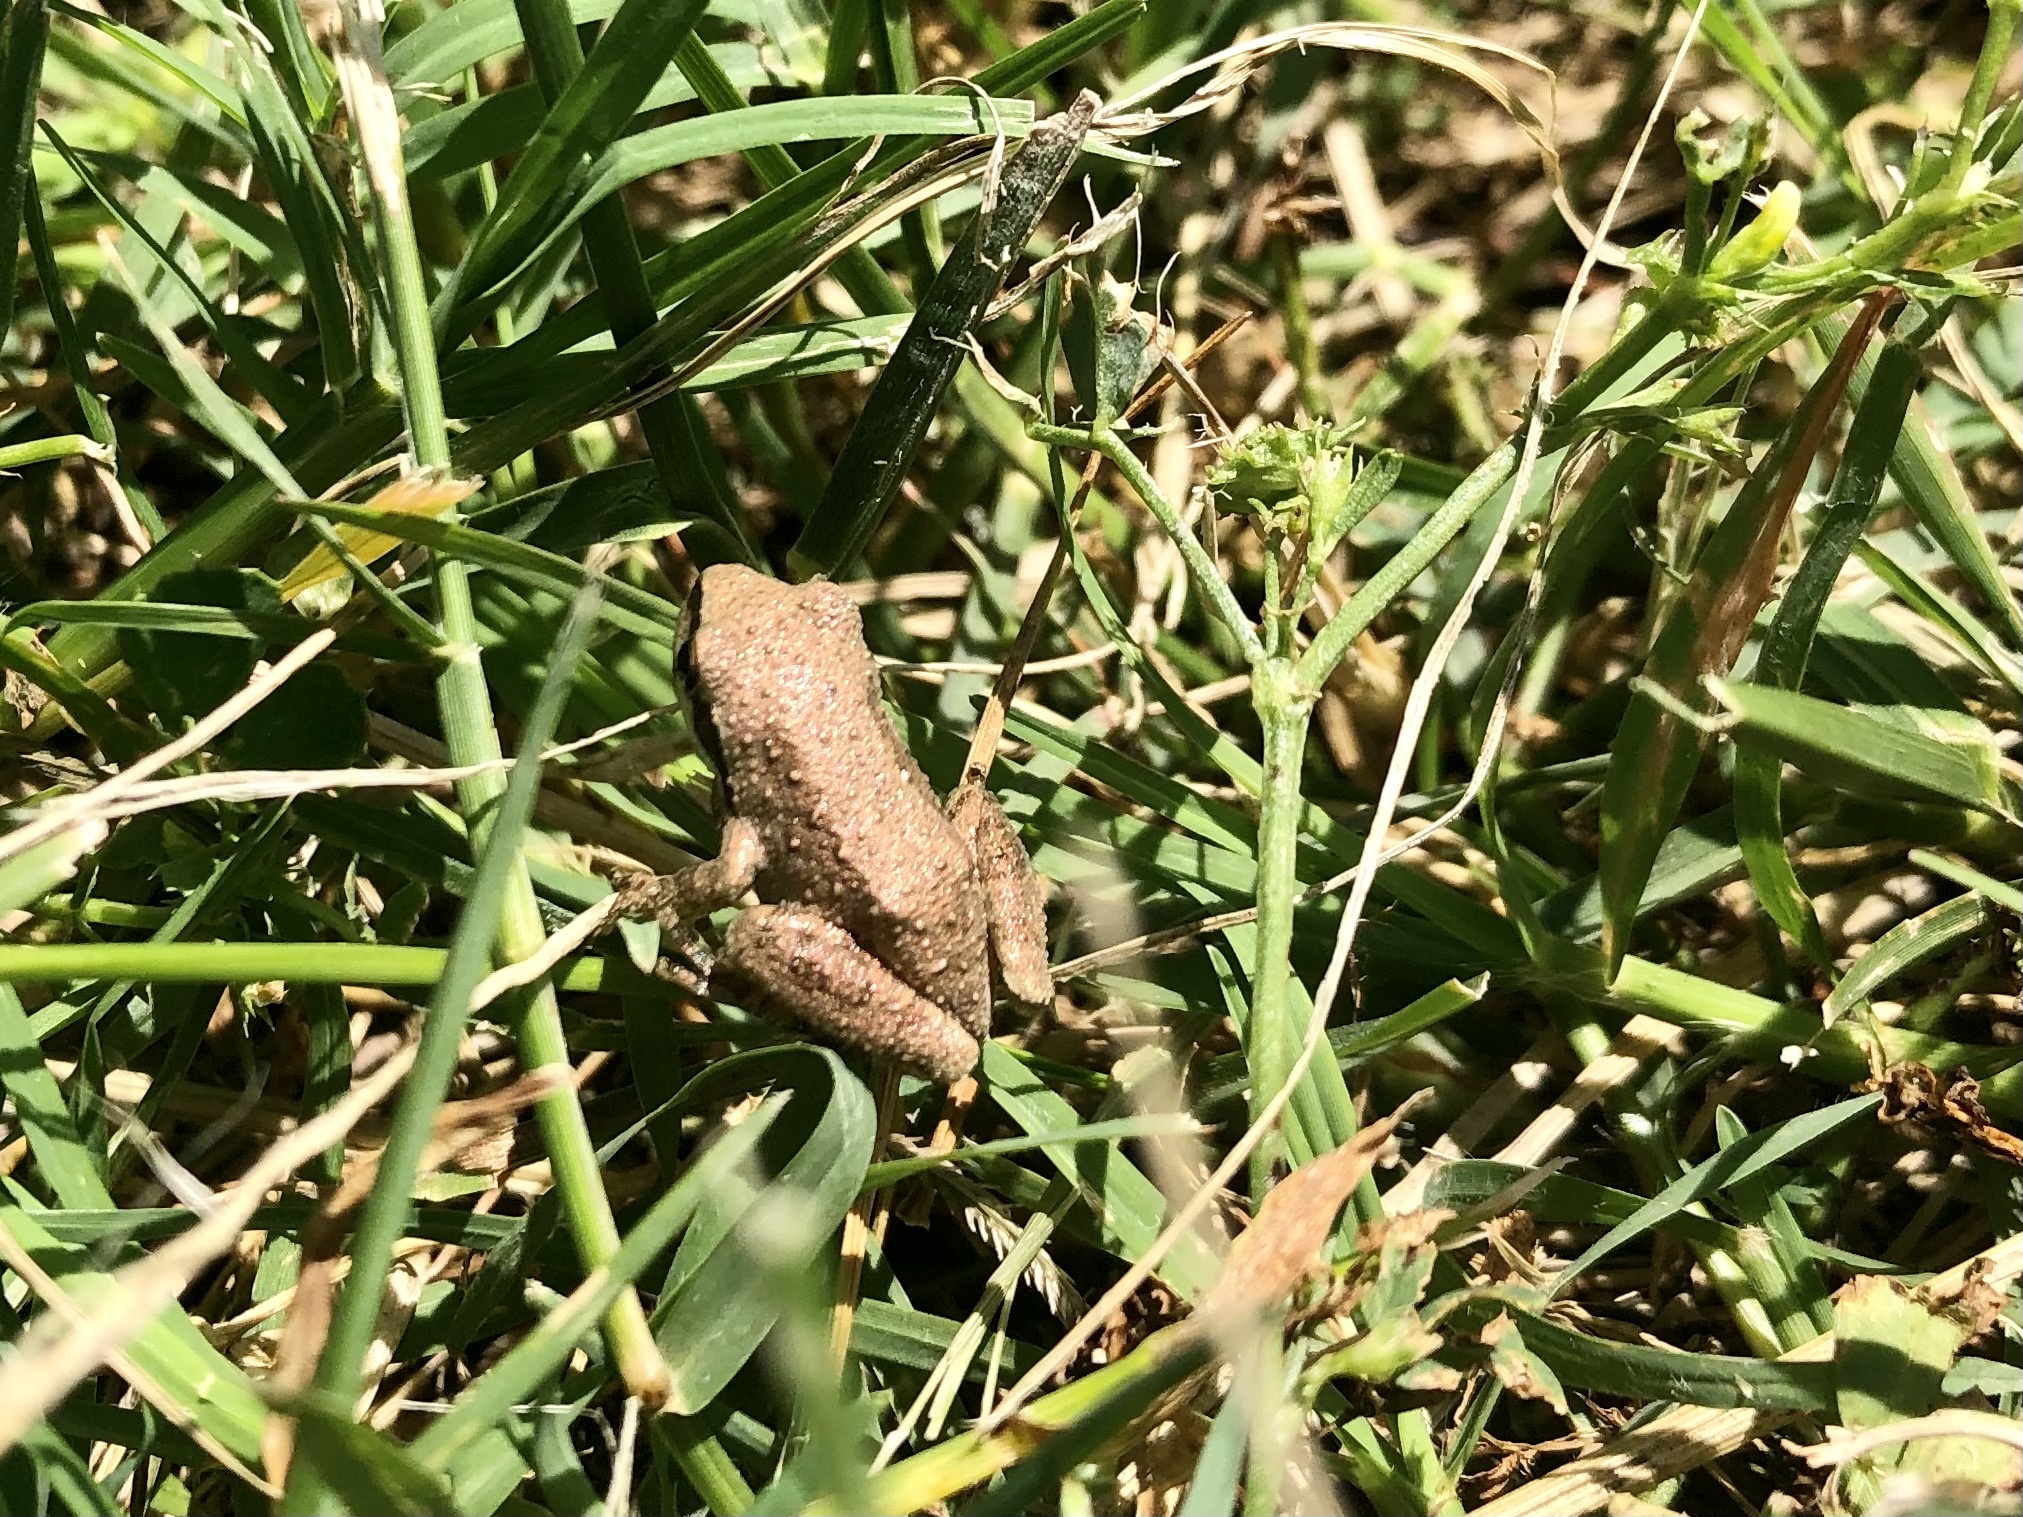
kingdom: Animalia
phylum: Chordata
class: Amphibia
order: Anura
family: Hylidae
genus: Pseudacris
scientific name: Pseudacris regilla
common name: Pacific chorus frog
